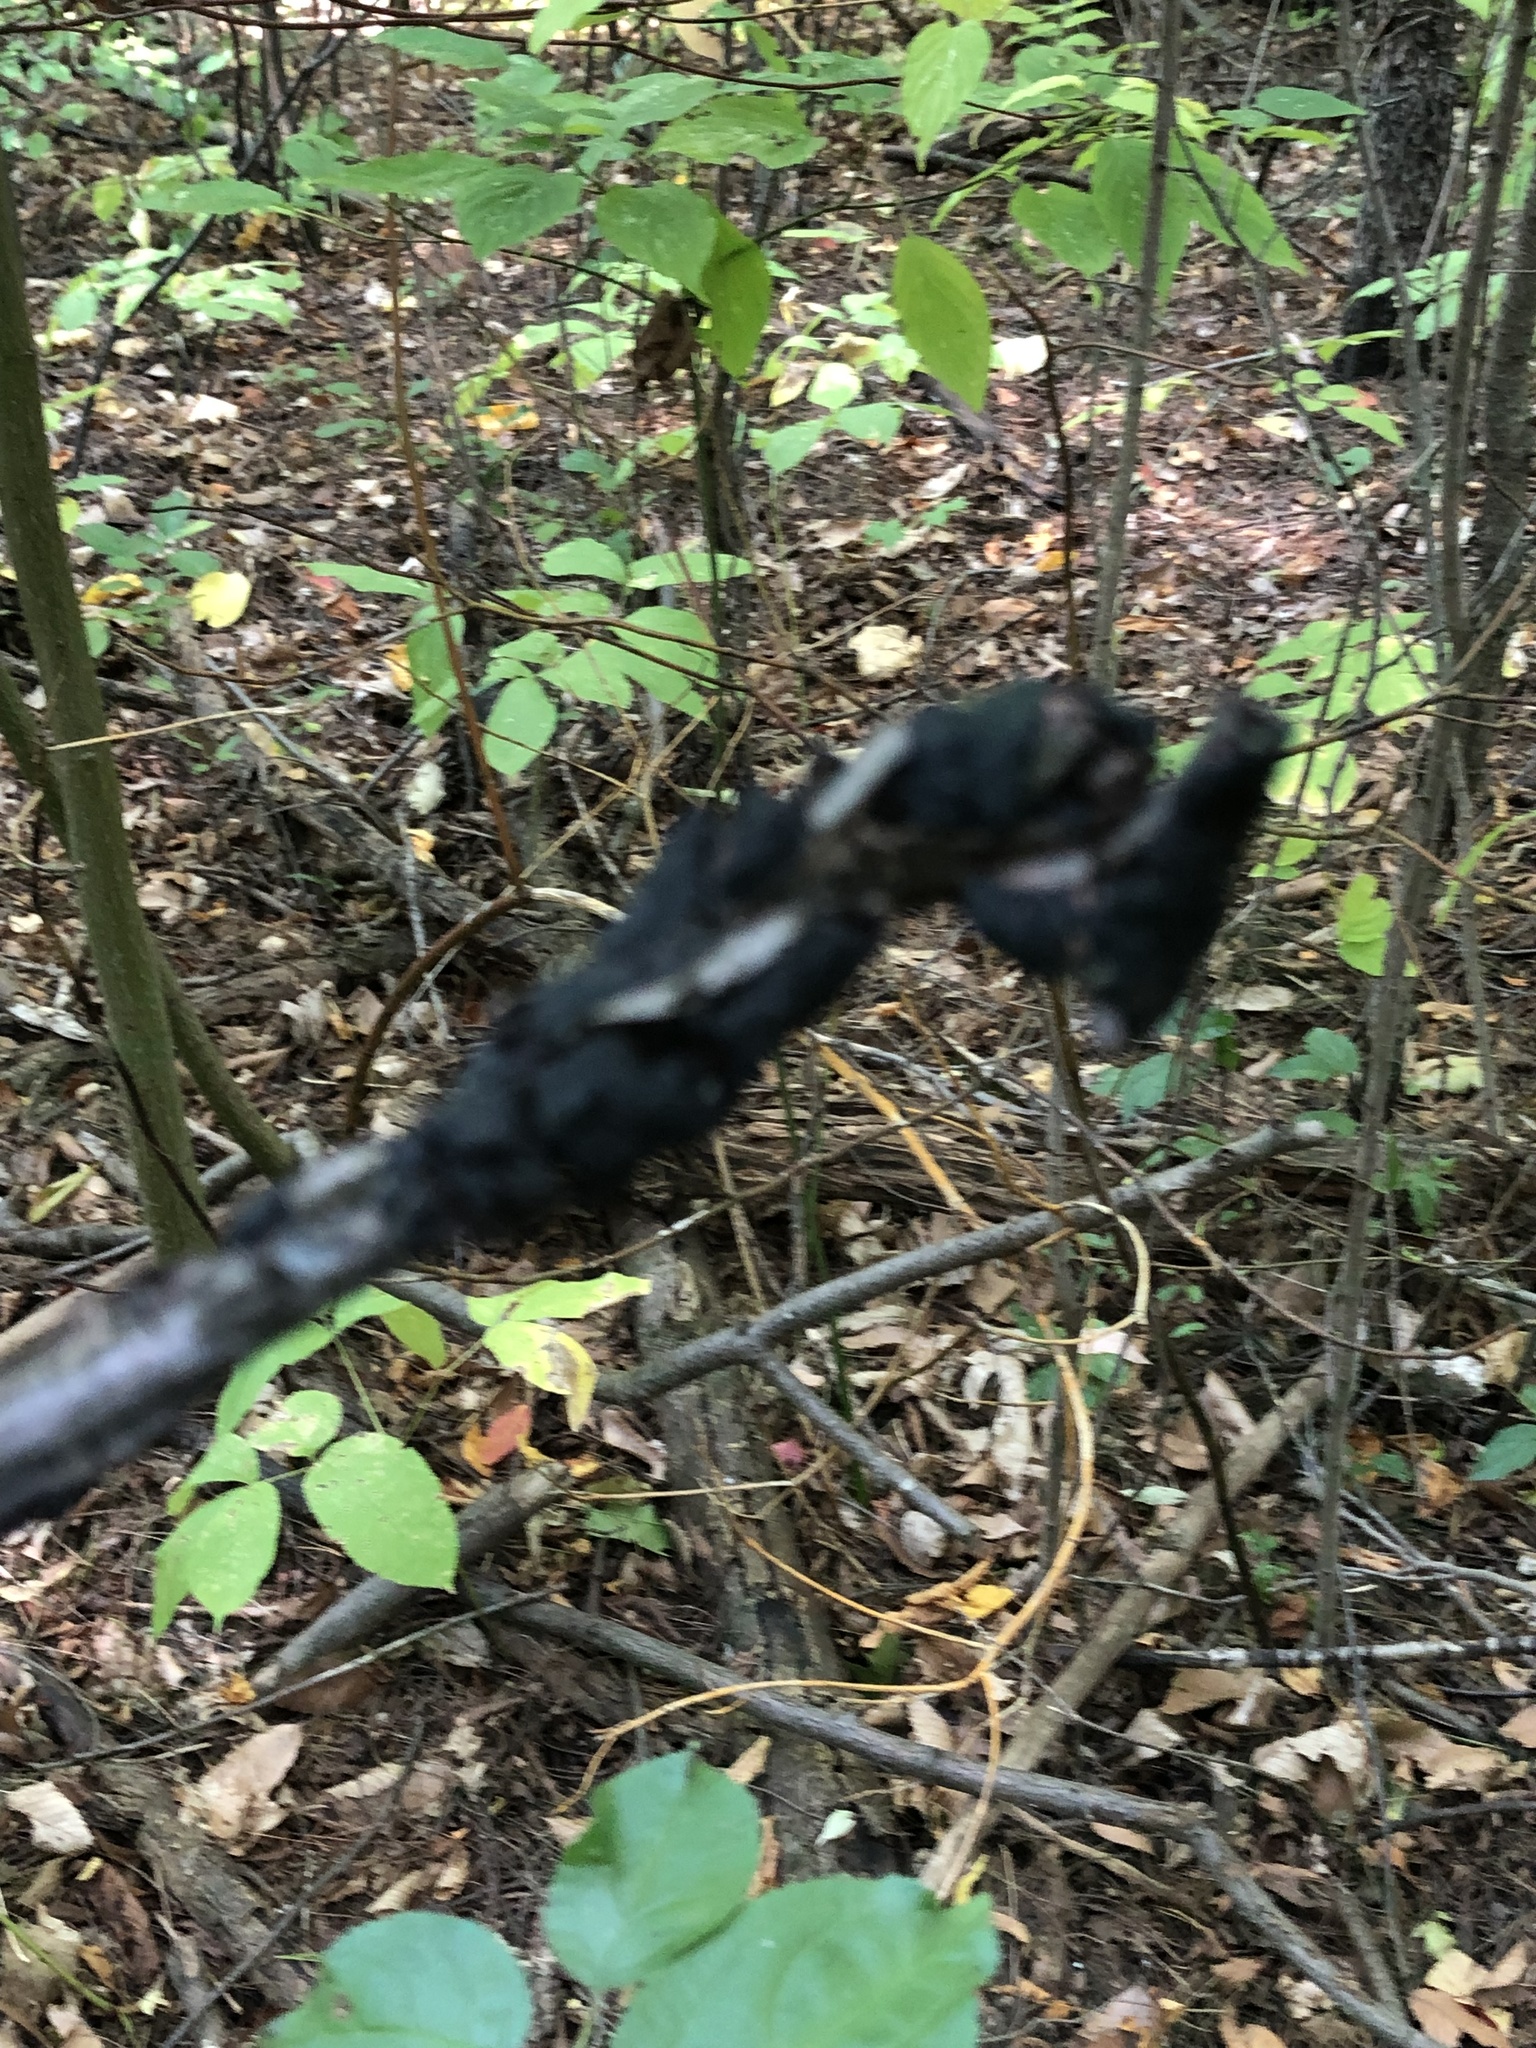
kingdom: Fungi
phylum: Ascomycota
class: Dothideomycetes
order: Venturiales
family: Venturiaceae
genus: Apiosporina
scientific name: Apiosporina morbosa
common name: Black knot
